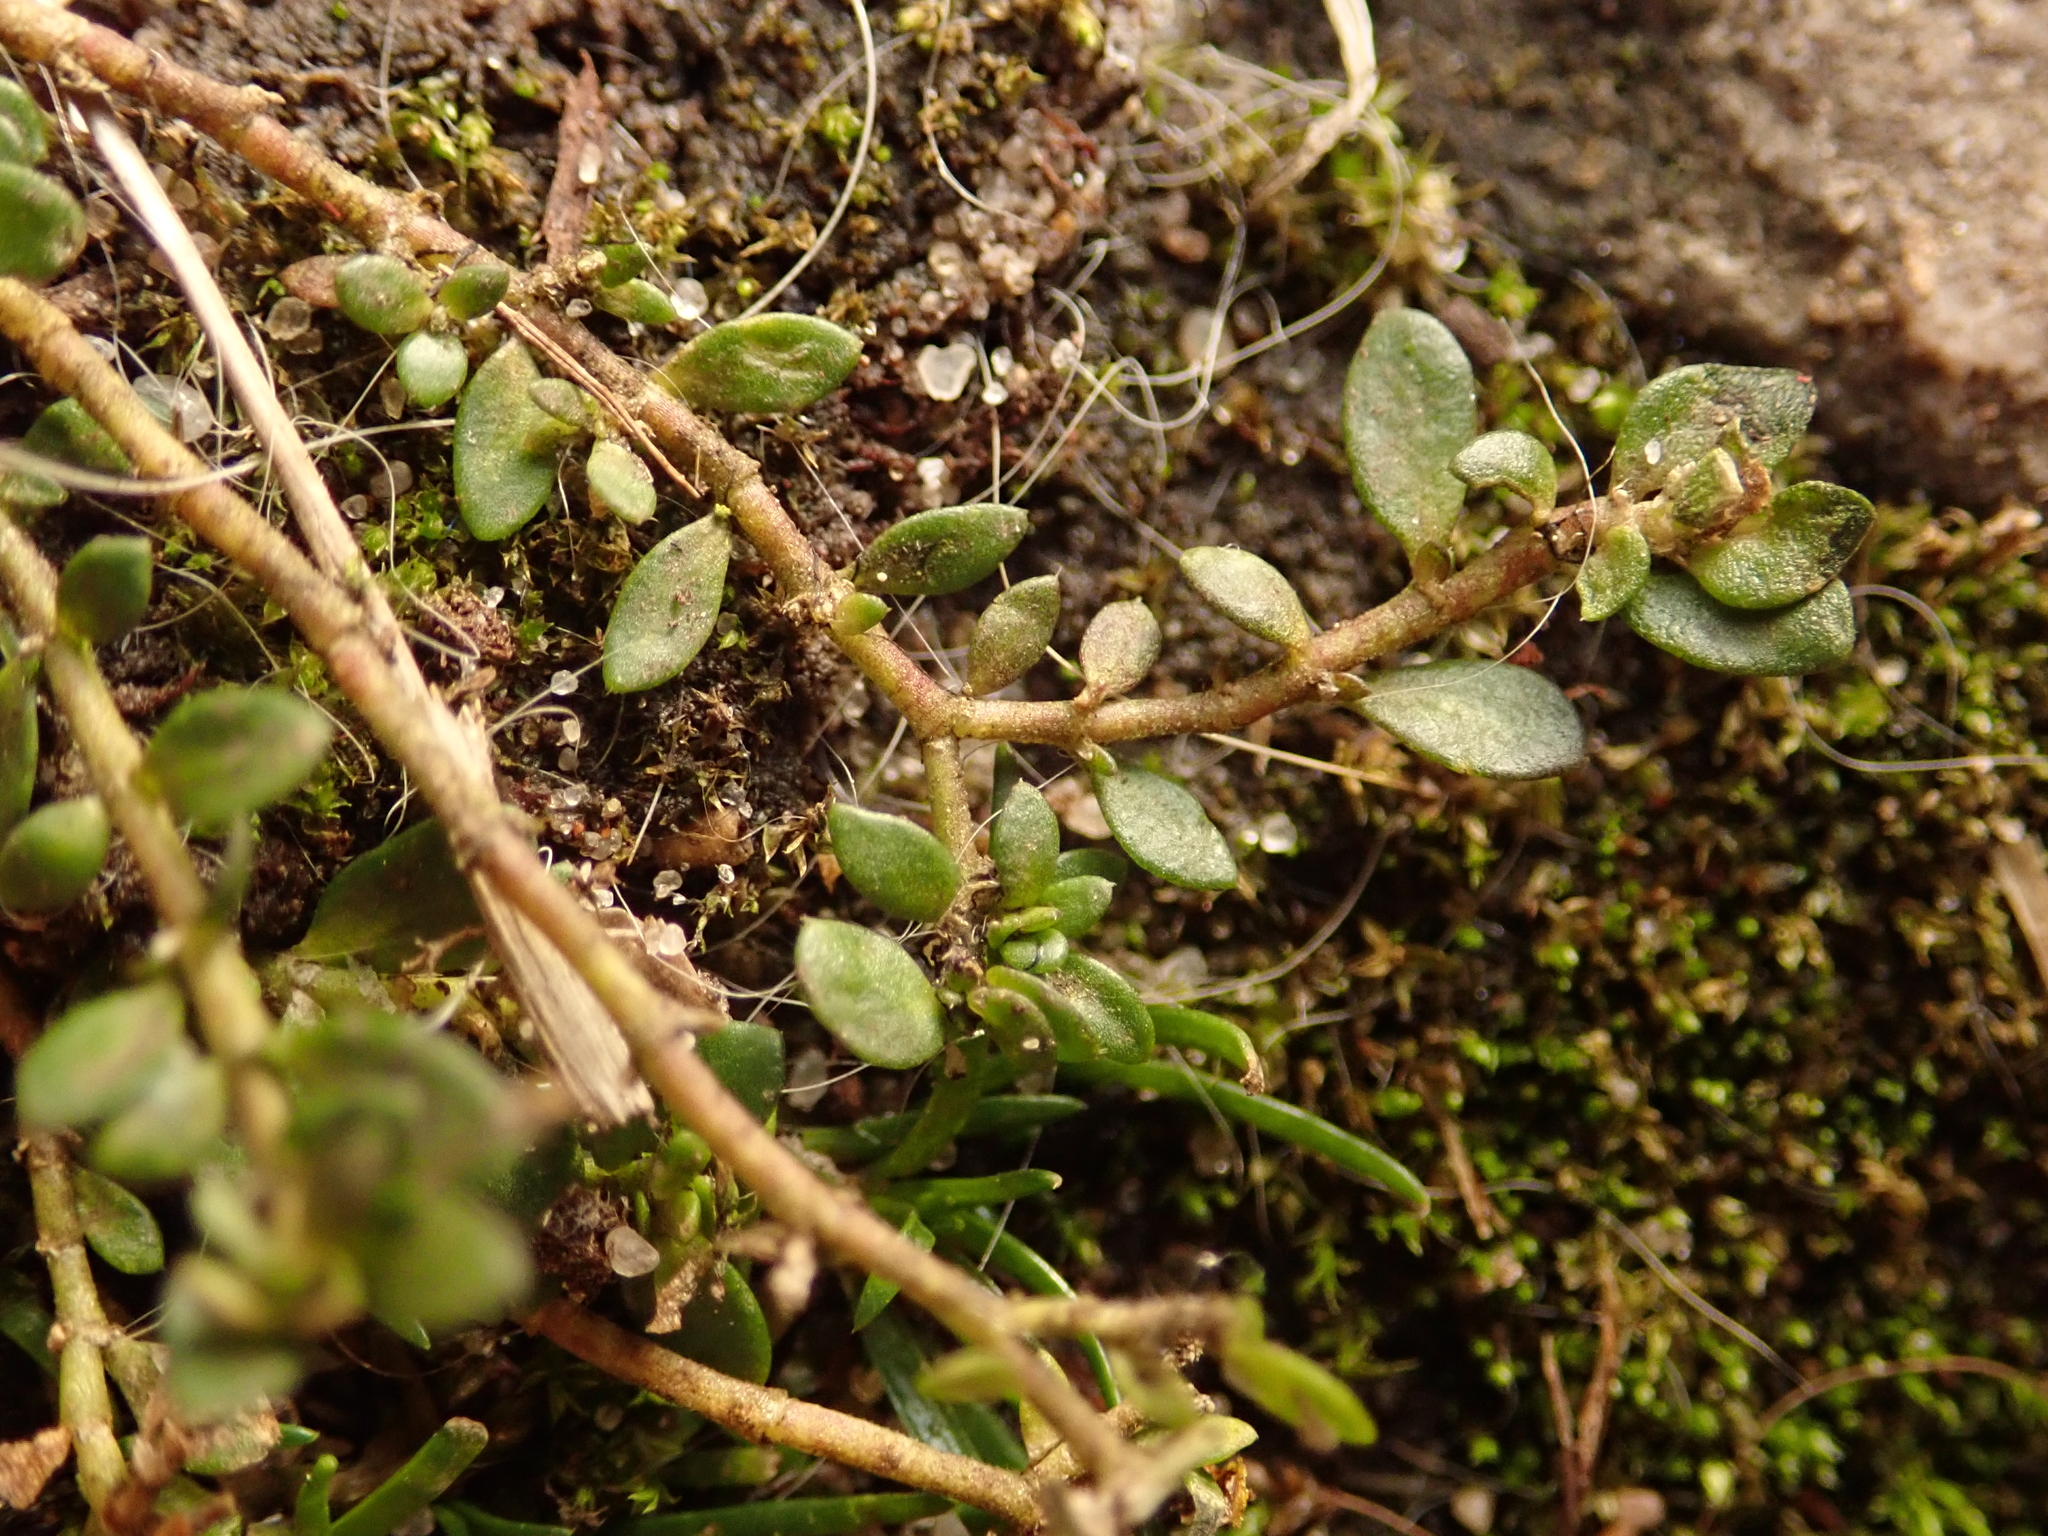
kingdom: Plantae
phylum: Tracheophyta
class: Magnoliopsida
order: Caryophyllales
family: Caryophyllaceae
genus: Herniaria
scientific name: Herniaria glabra
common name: Smooth rupturewort
